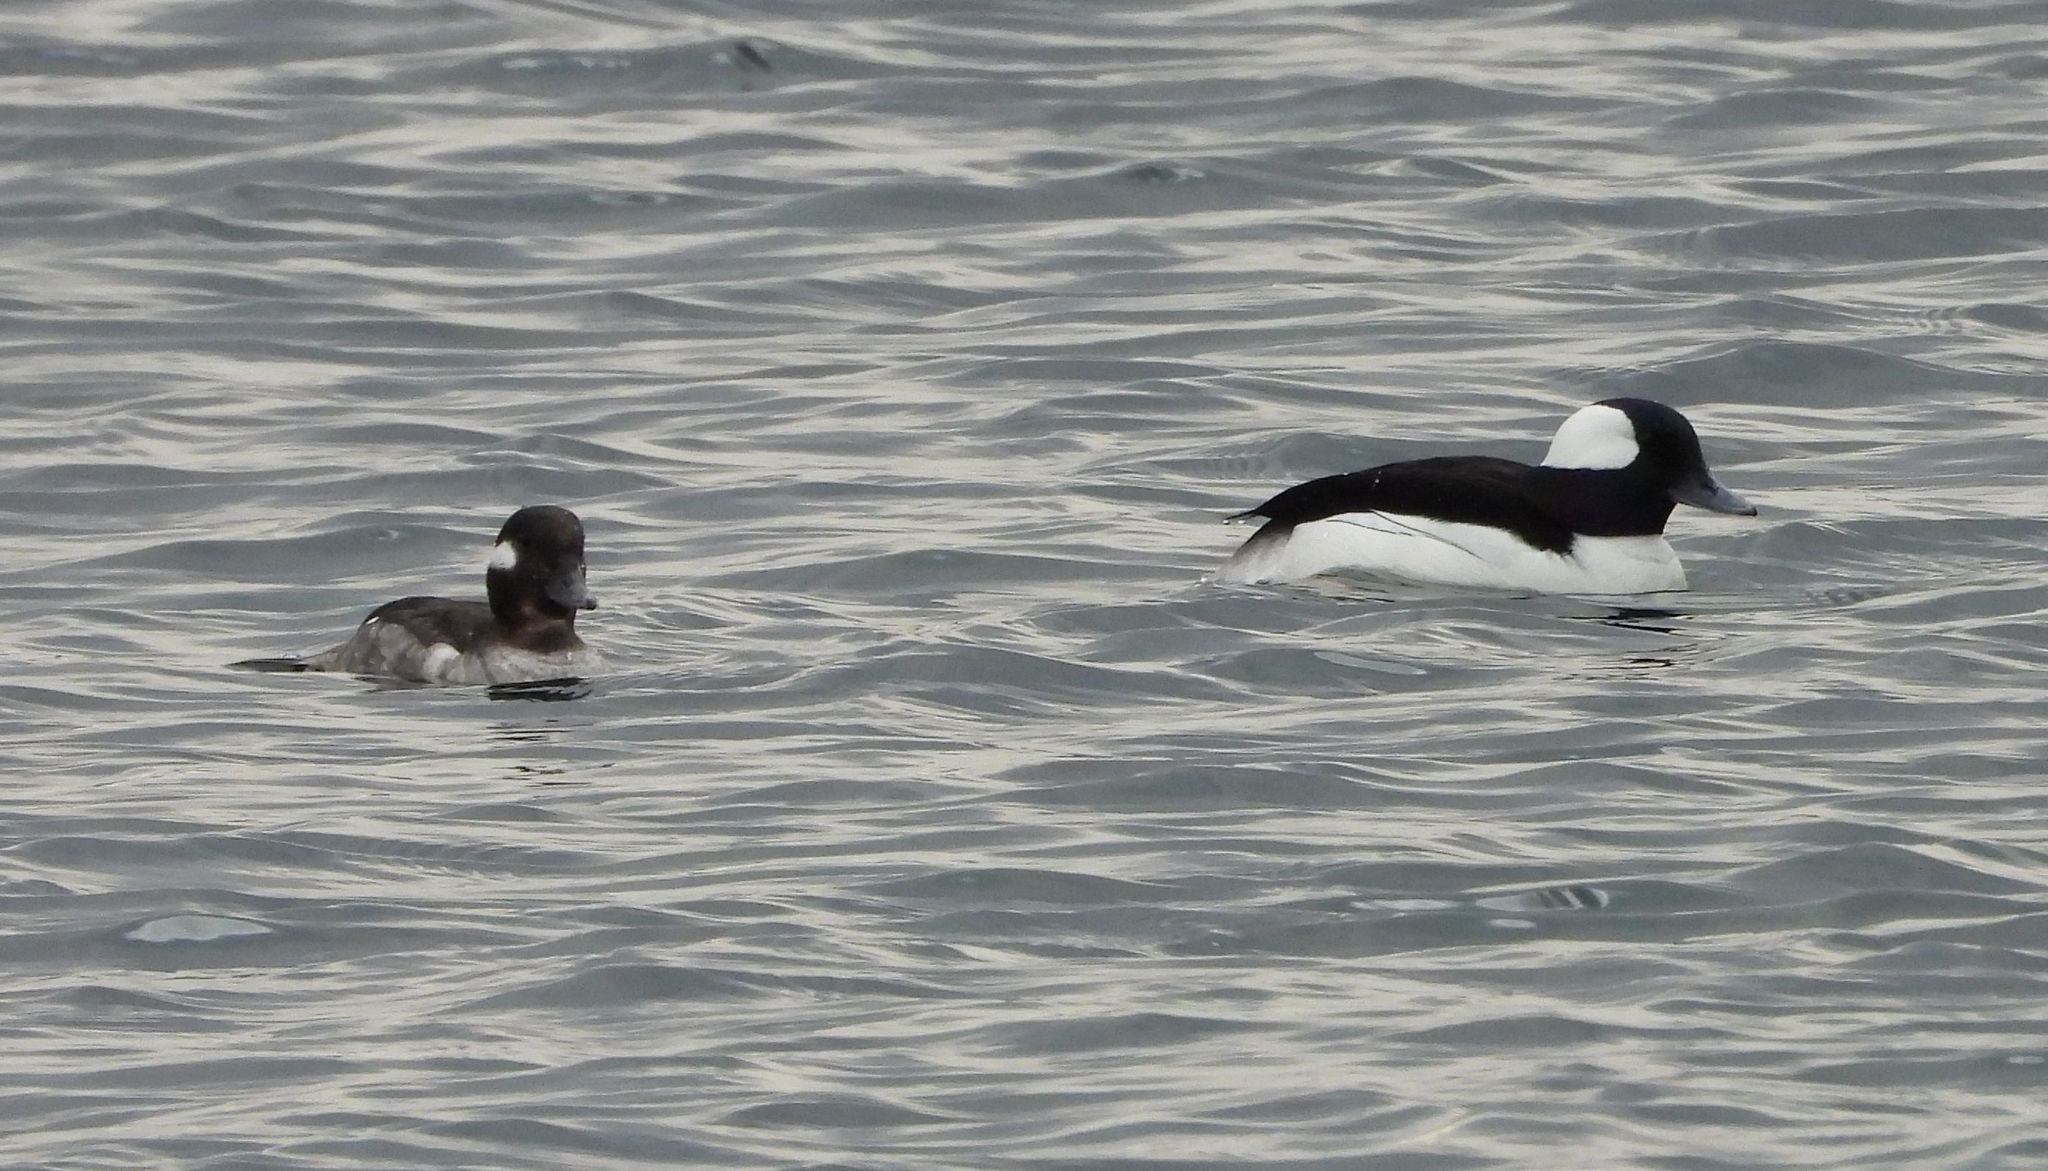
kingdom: Animalia
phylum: Chordata
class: Aves
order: Anseriformes
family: Anatidae
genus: Bucephala
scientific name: Bucephala albeola
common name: Bufflehead
